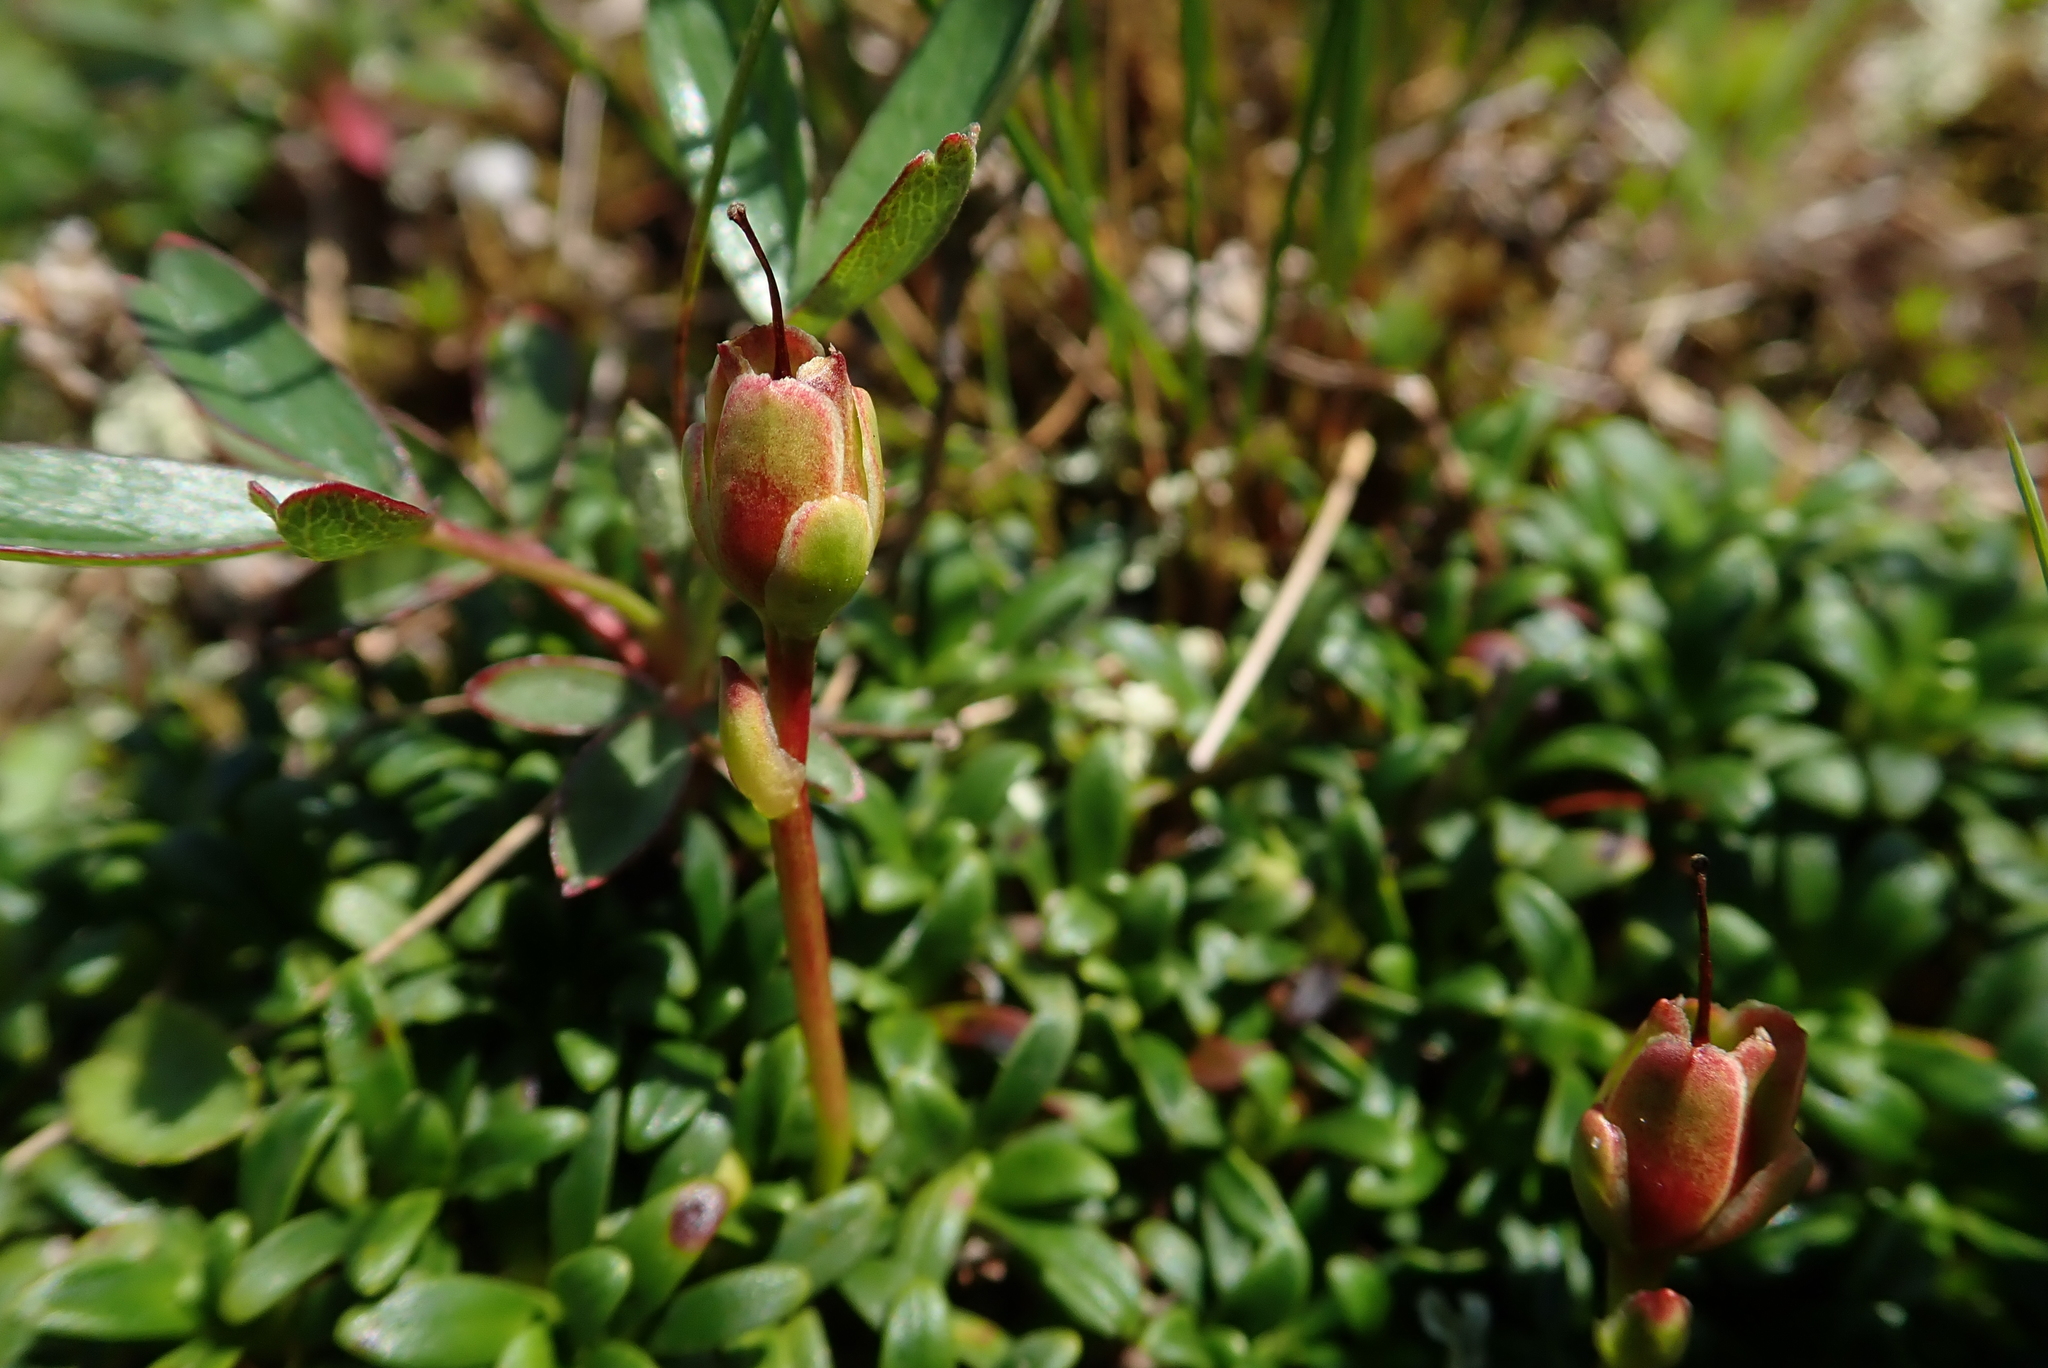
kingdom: Plantae
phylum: Tracheophyta
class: Magnoliopsida
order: Ericales
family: Diapensiaceae
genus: Diapensia
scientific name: Diapensia lapponica
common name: Diapensia
